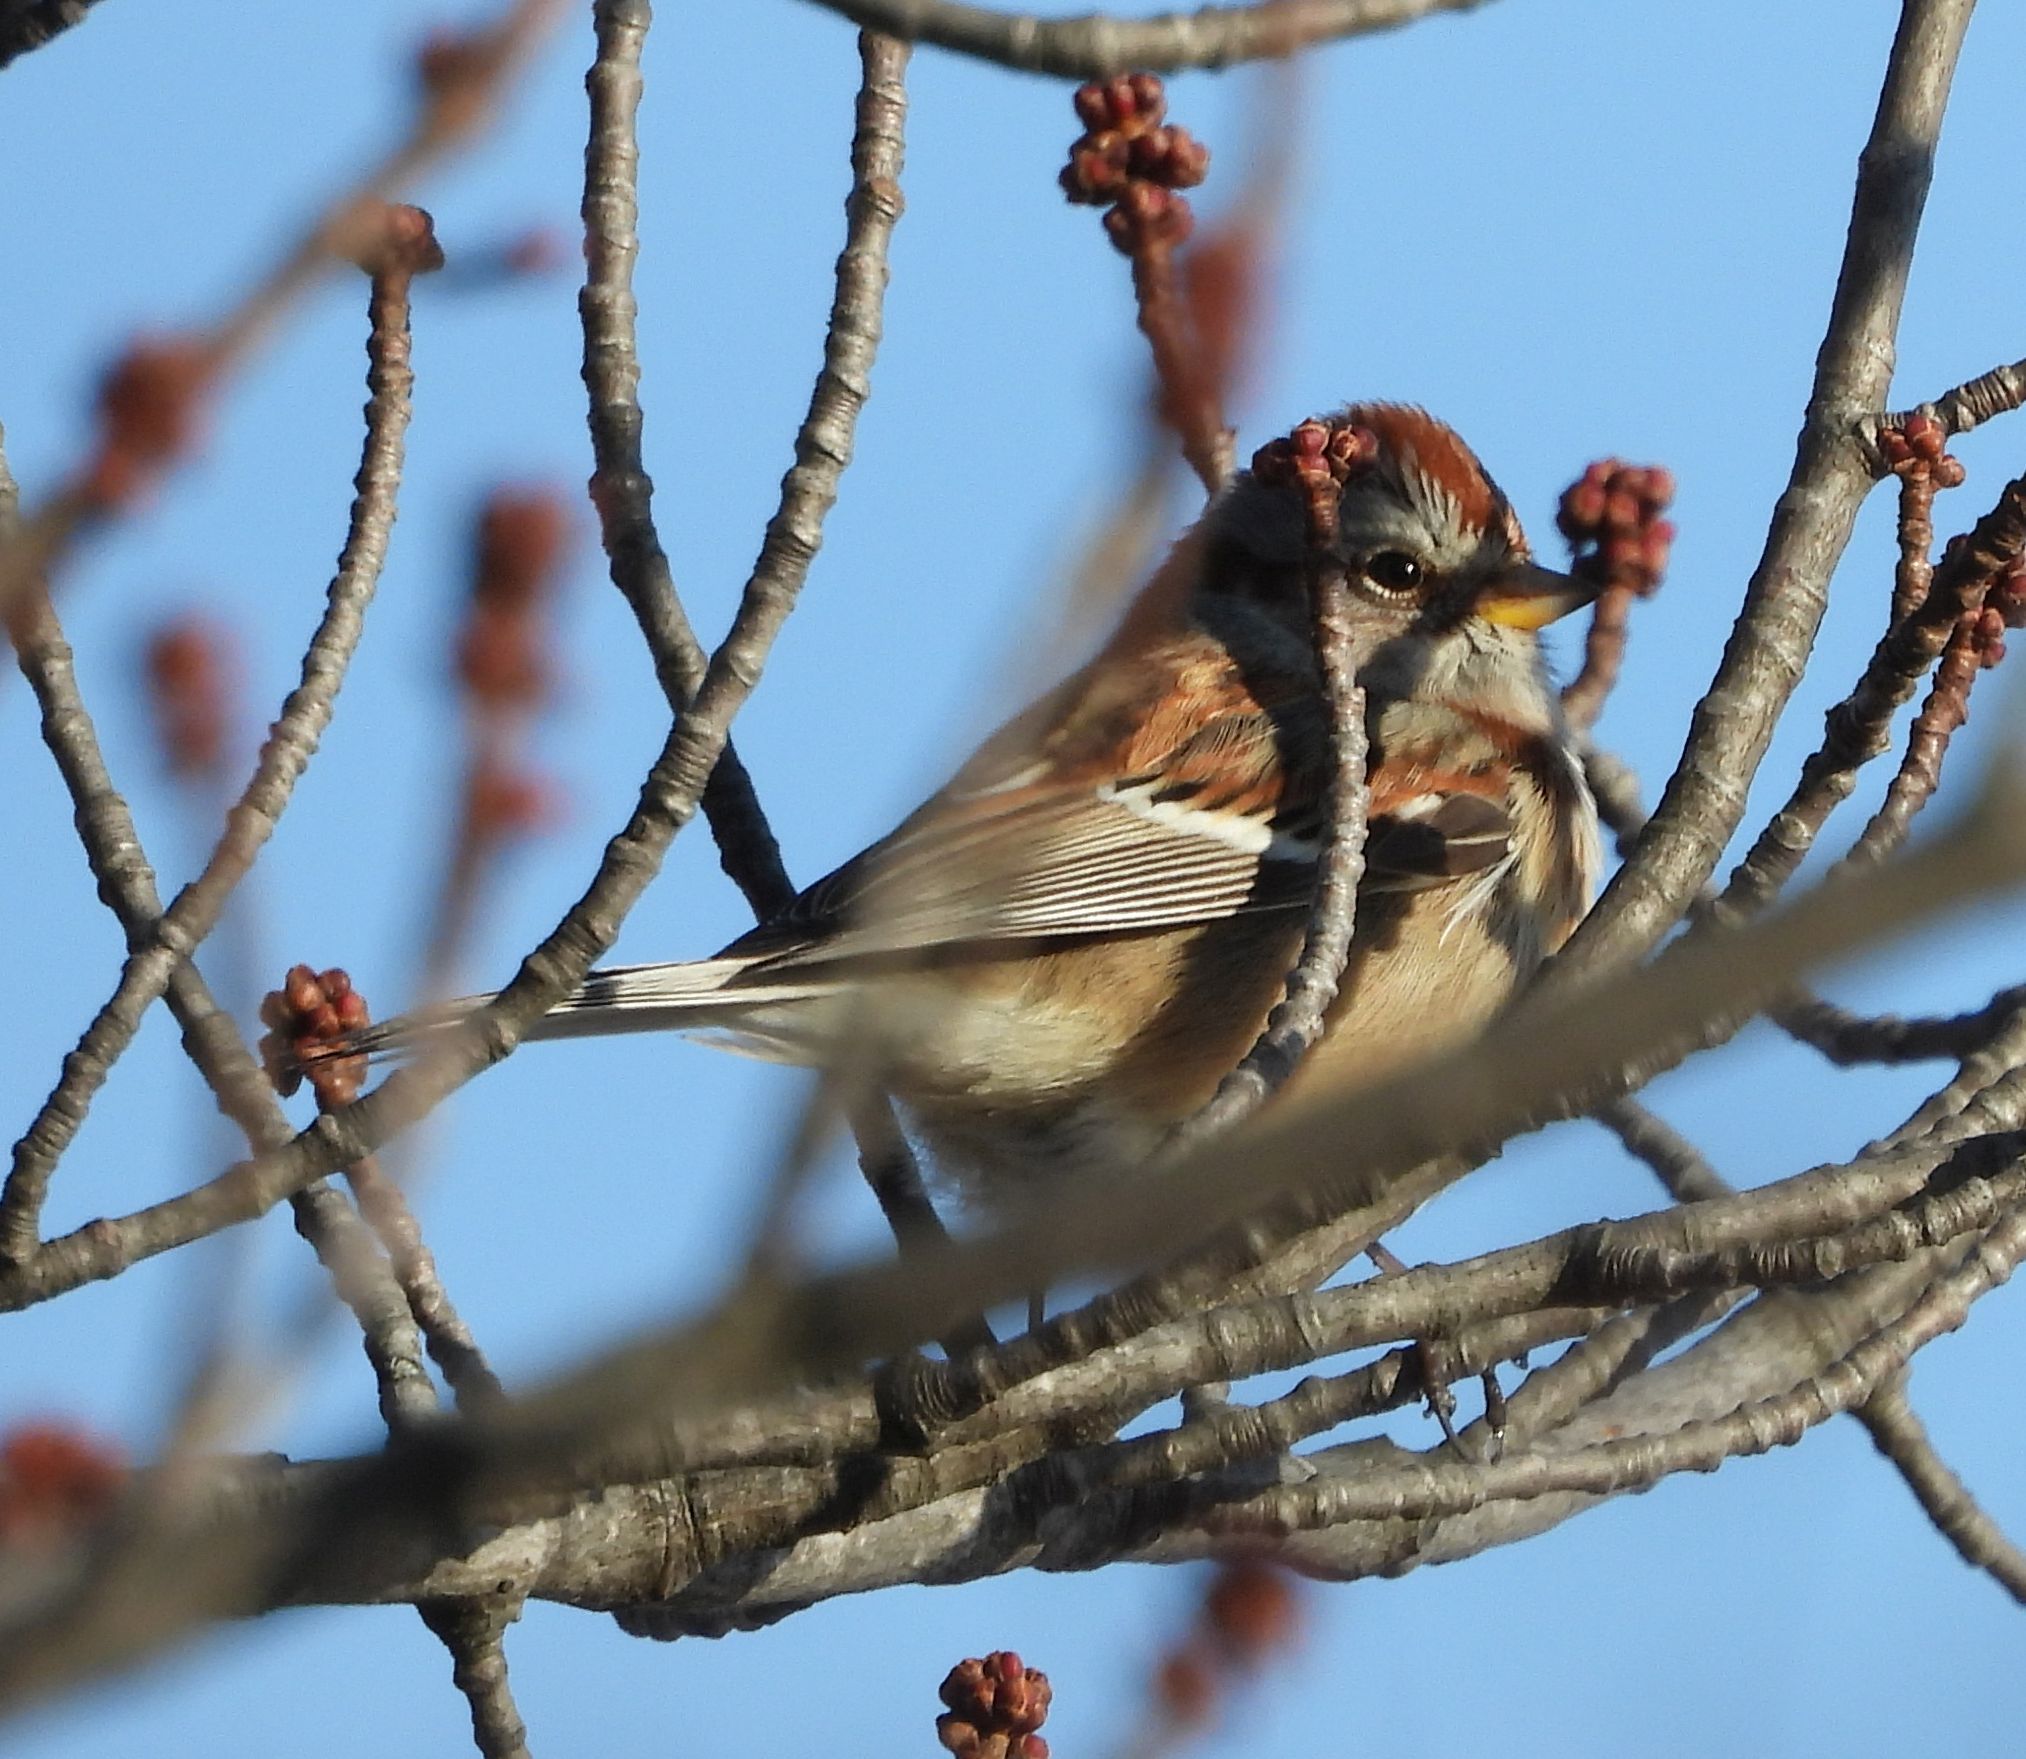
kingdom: Animalia
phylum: Chordata
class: Aves
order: Passeriformes
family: Passerellidae
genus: Spizelloides
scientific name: Spizelloides arborea
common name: American tree sparrow
